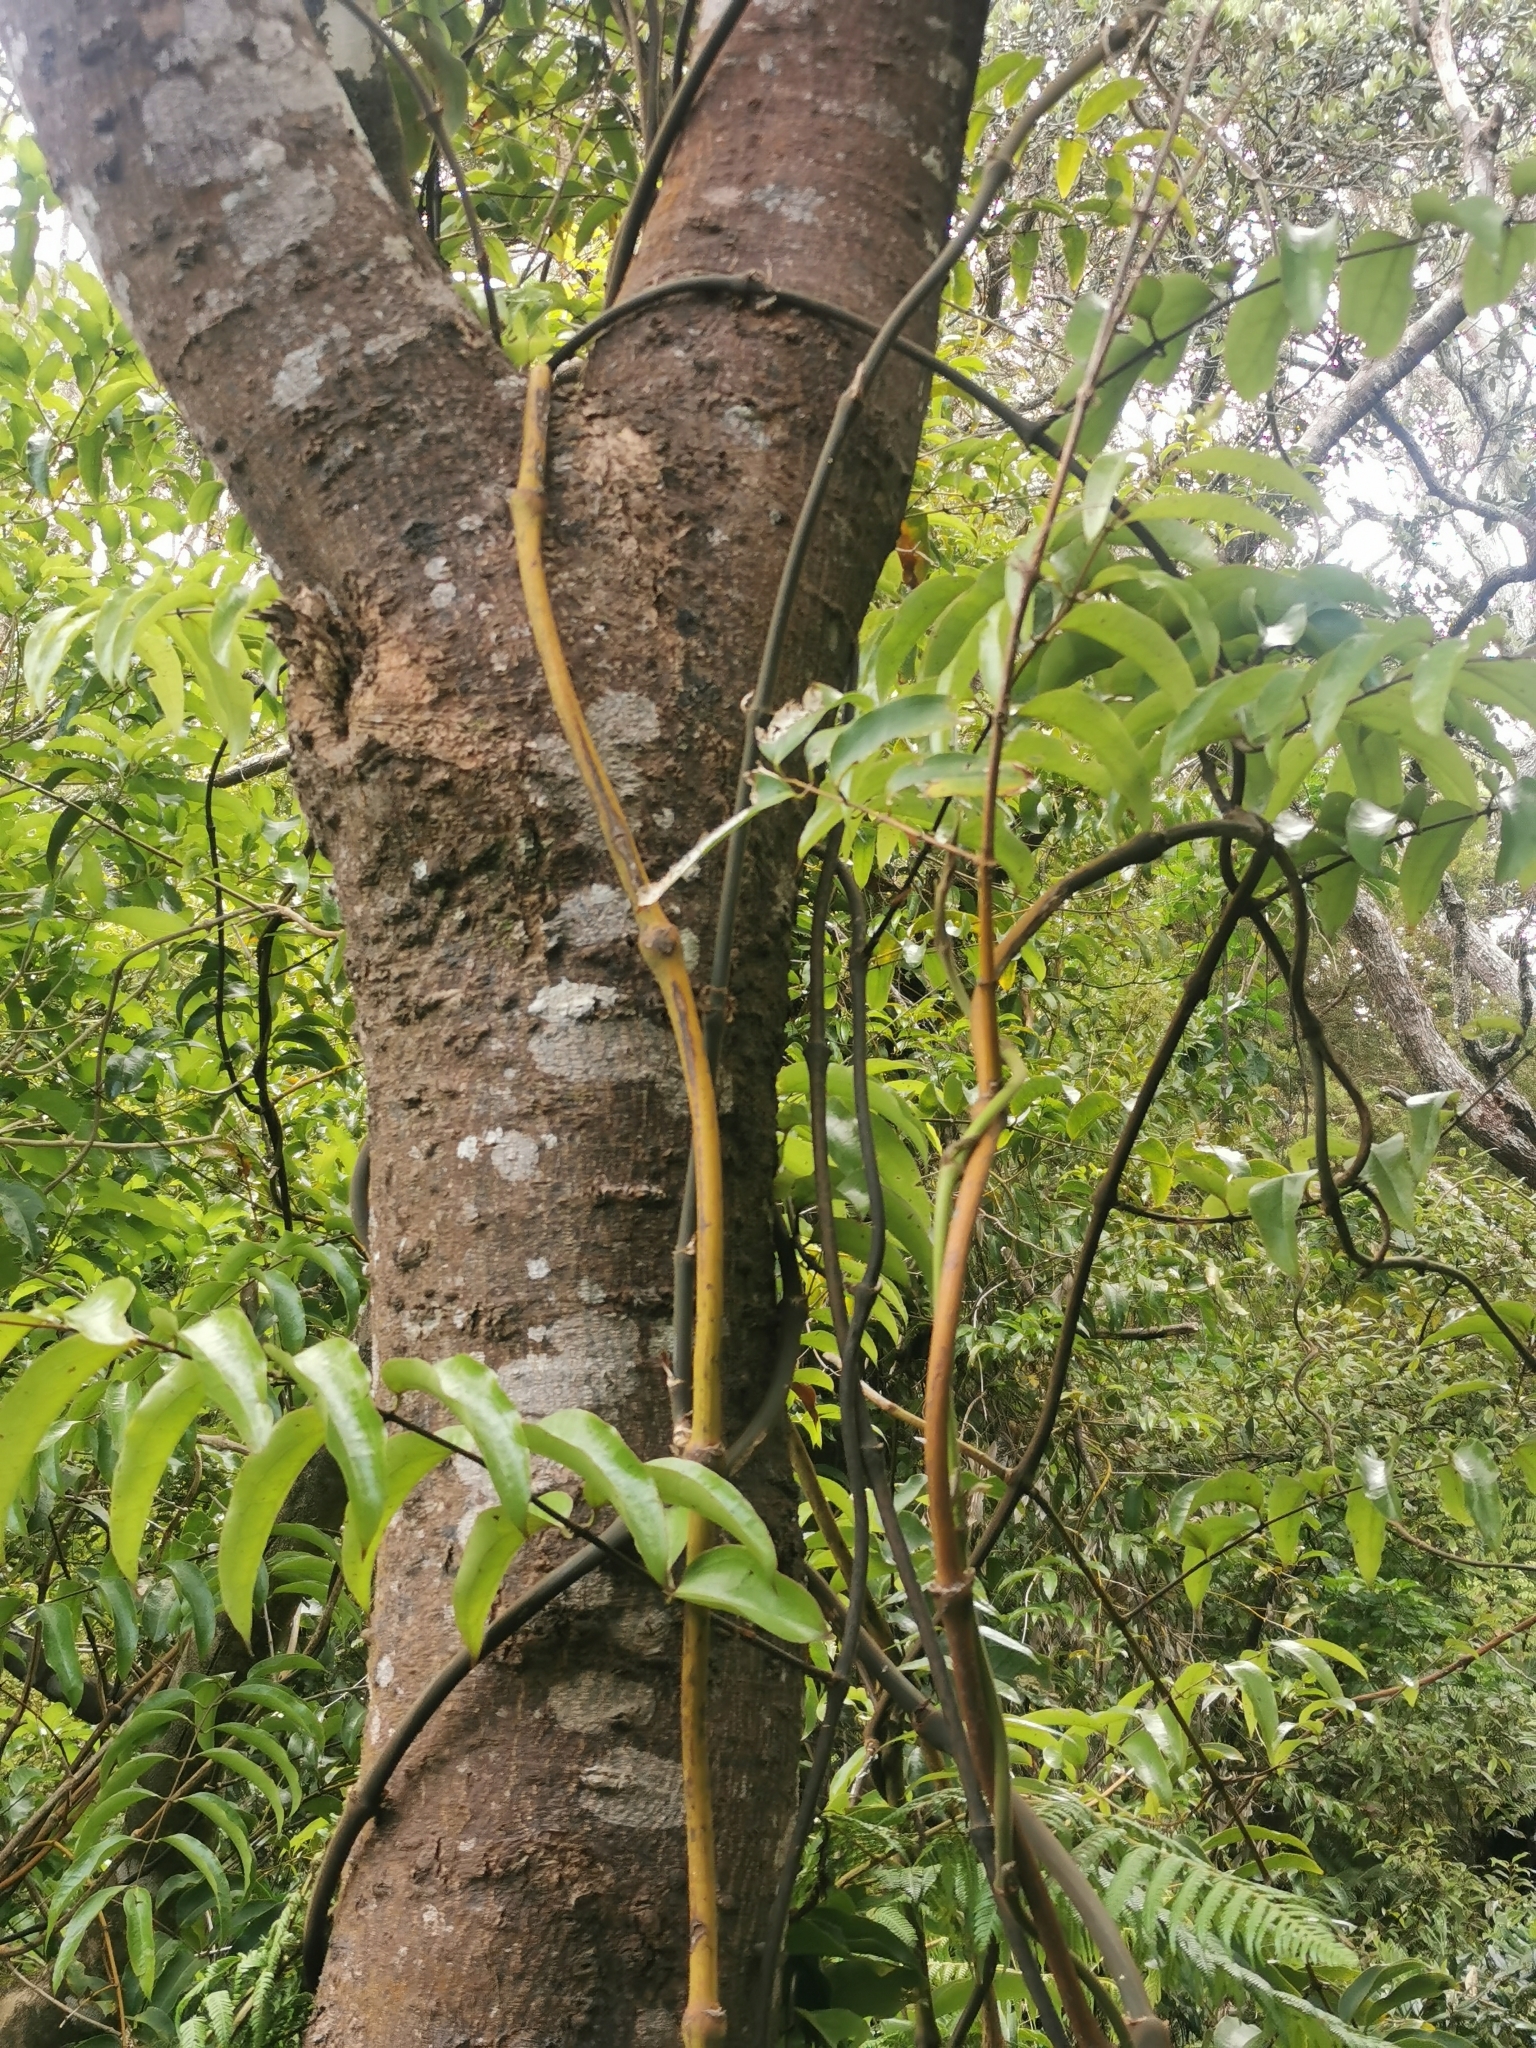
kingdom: Plantae
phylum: Tracheophyta
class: Liliopsida
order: Liliales
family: Ripogonaceae
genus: Ripogonum
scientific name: Ripogonum scandens
